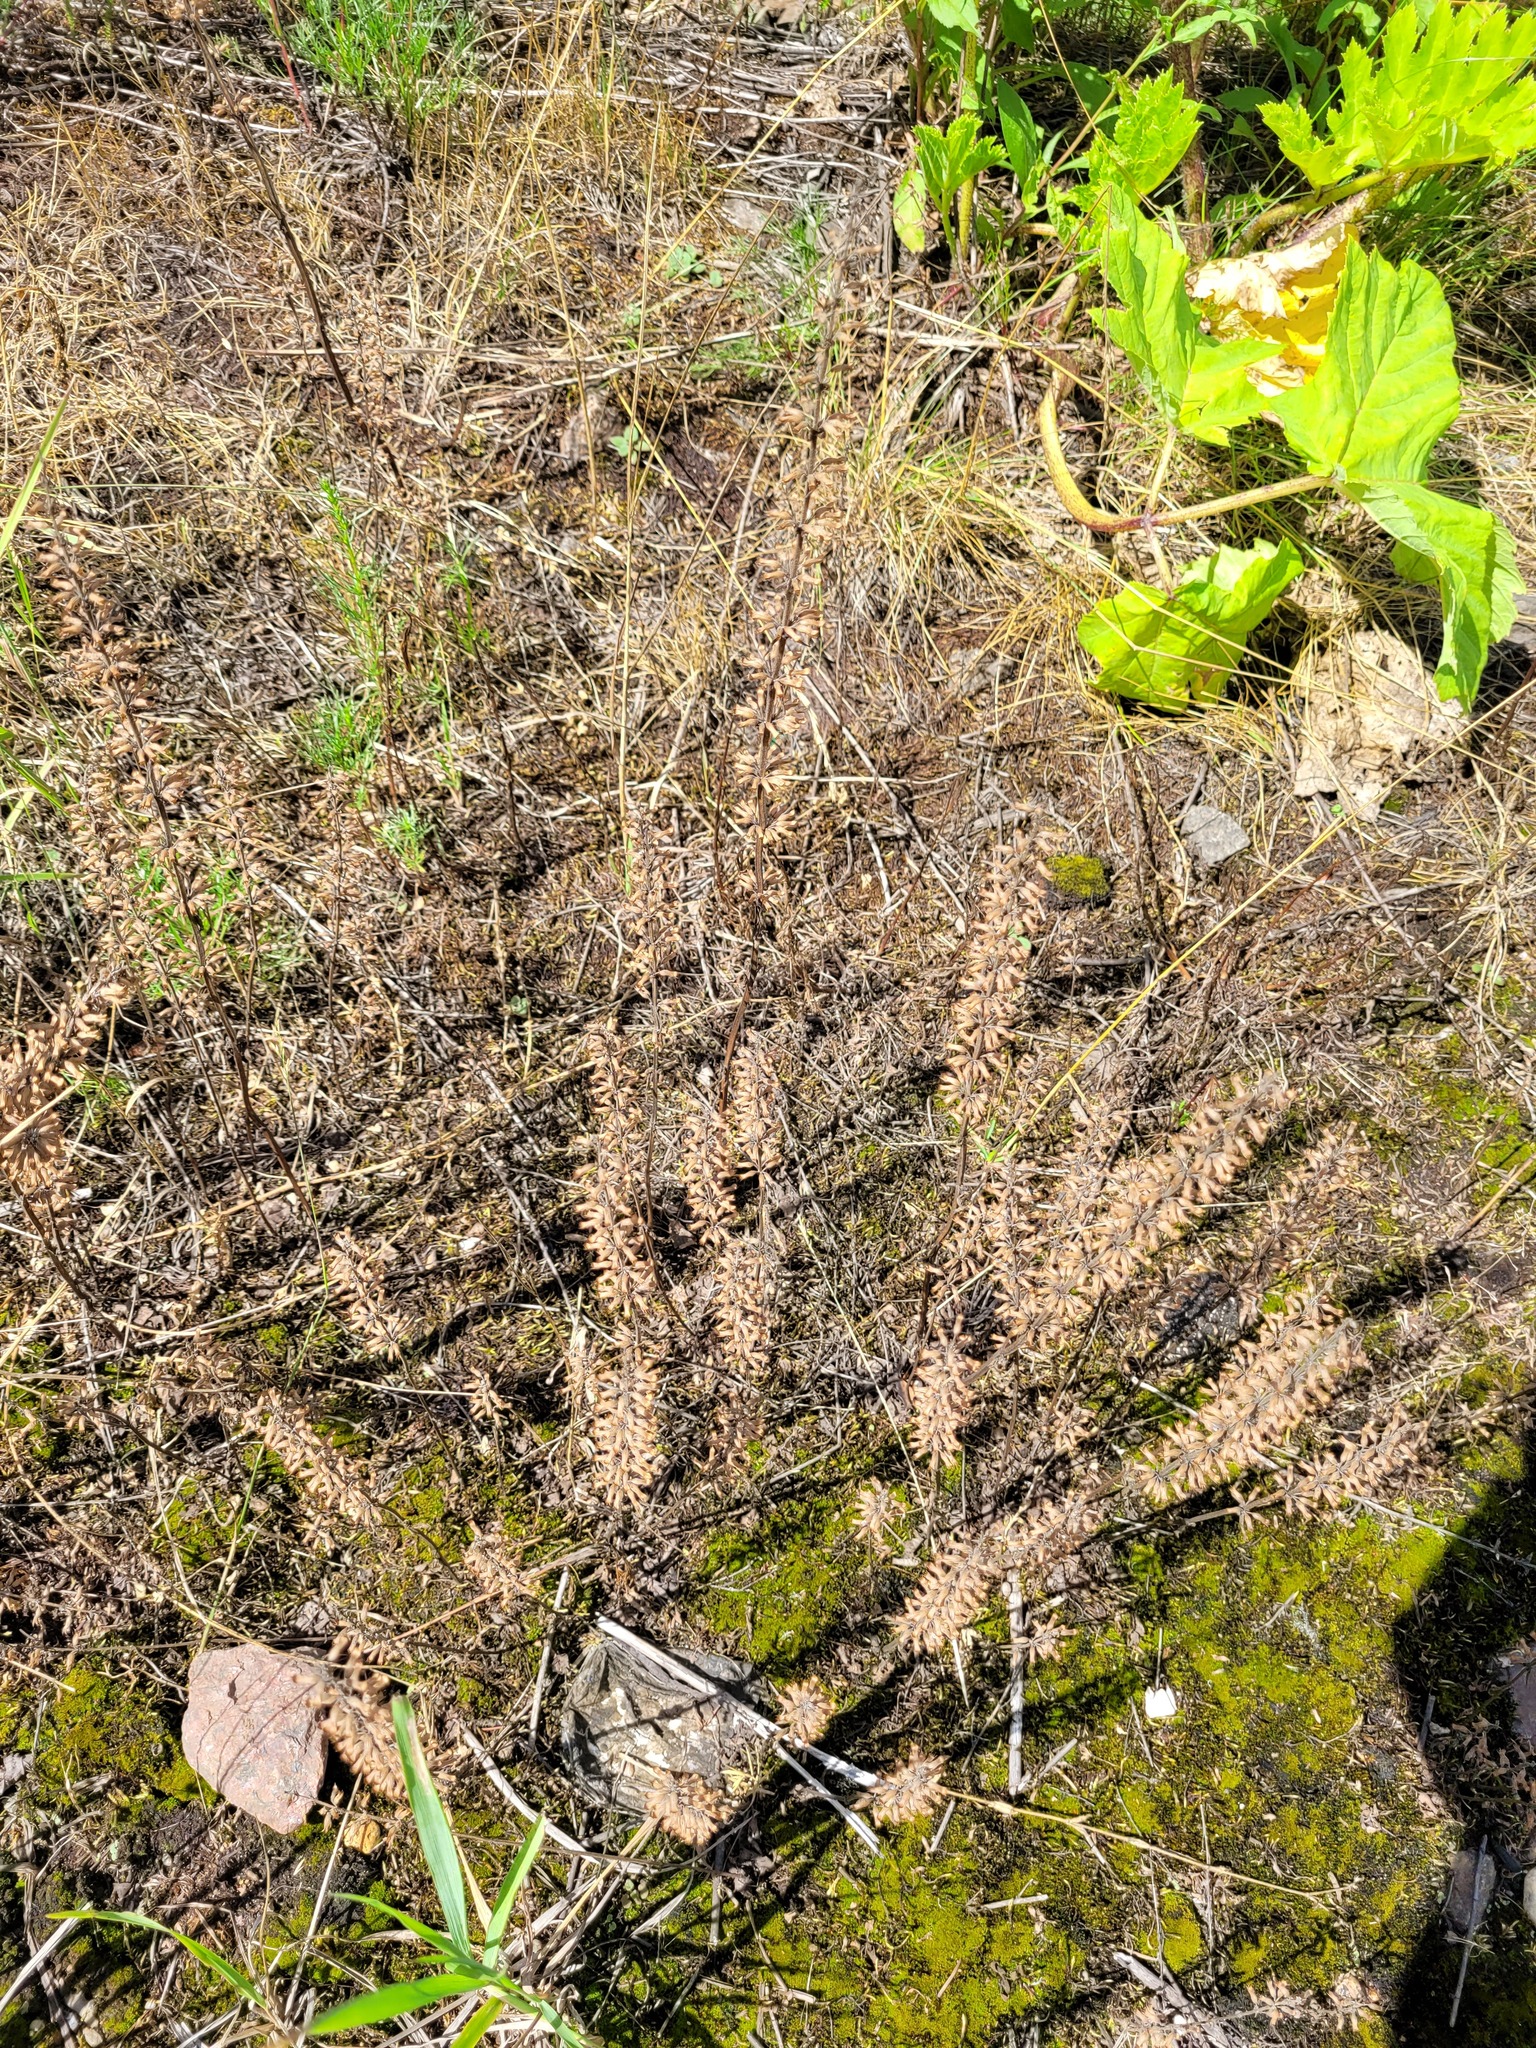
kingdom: Plantae
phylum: Tracheophyta
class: Magnoliopsida
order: Lamiales
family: Lamiaceae
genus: Dracocephalum
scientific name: Dracocephalum thymiflorum
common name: Thymeleaf dragonhead
